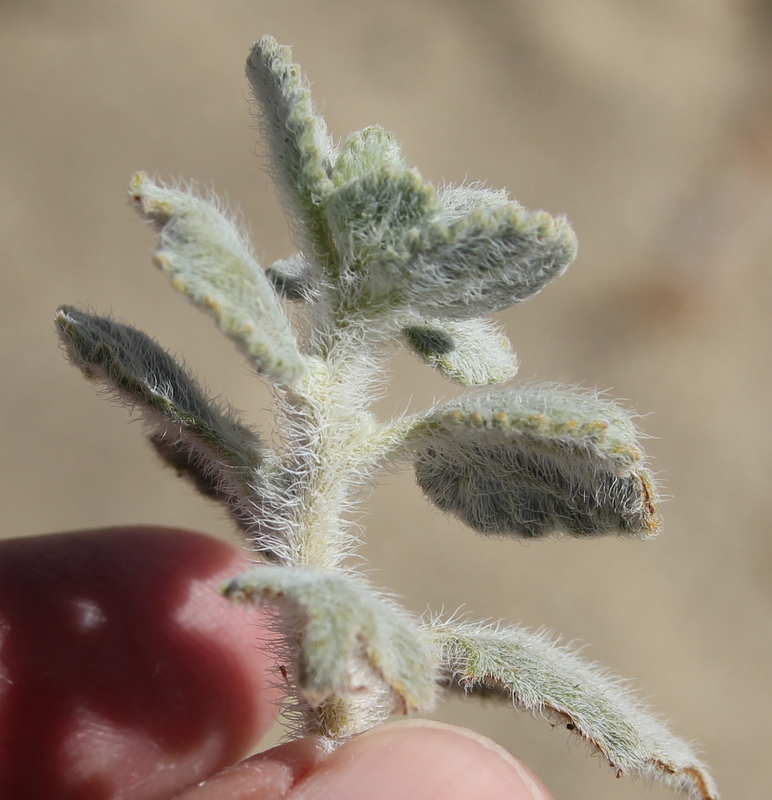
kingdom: Plantae
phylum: Tracheophyta
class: Magnoliopsida
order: Asterales
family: Asteraceae
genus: Dicoria
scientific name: Dicoria canescens
